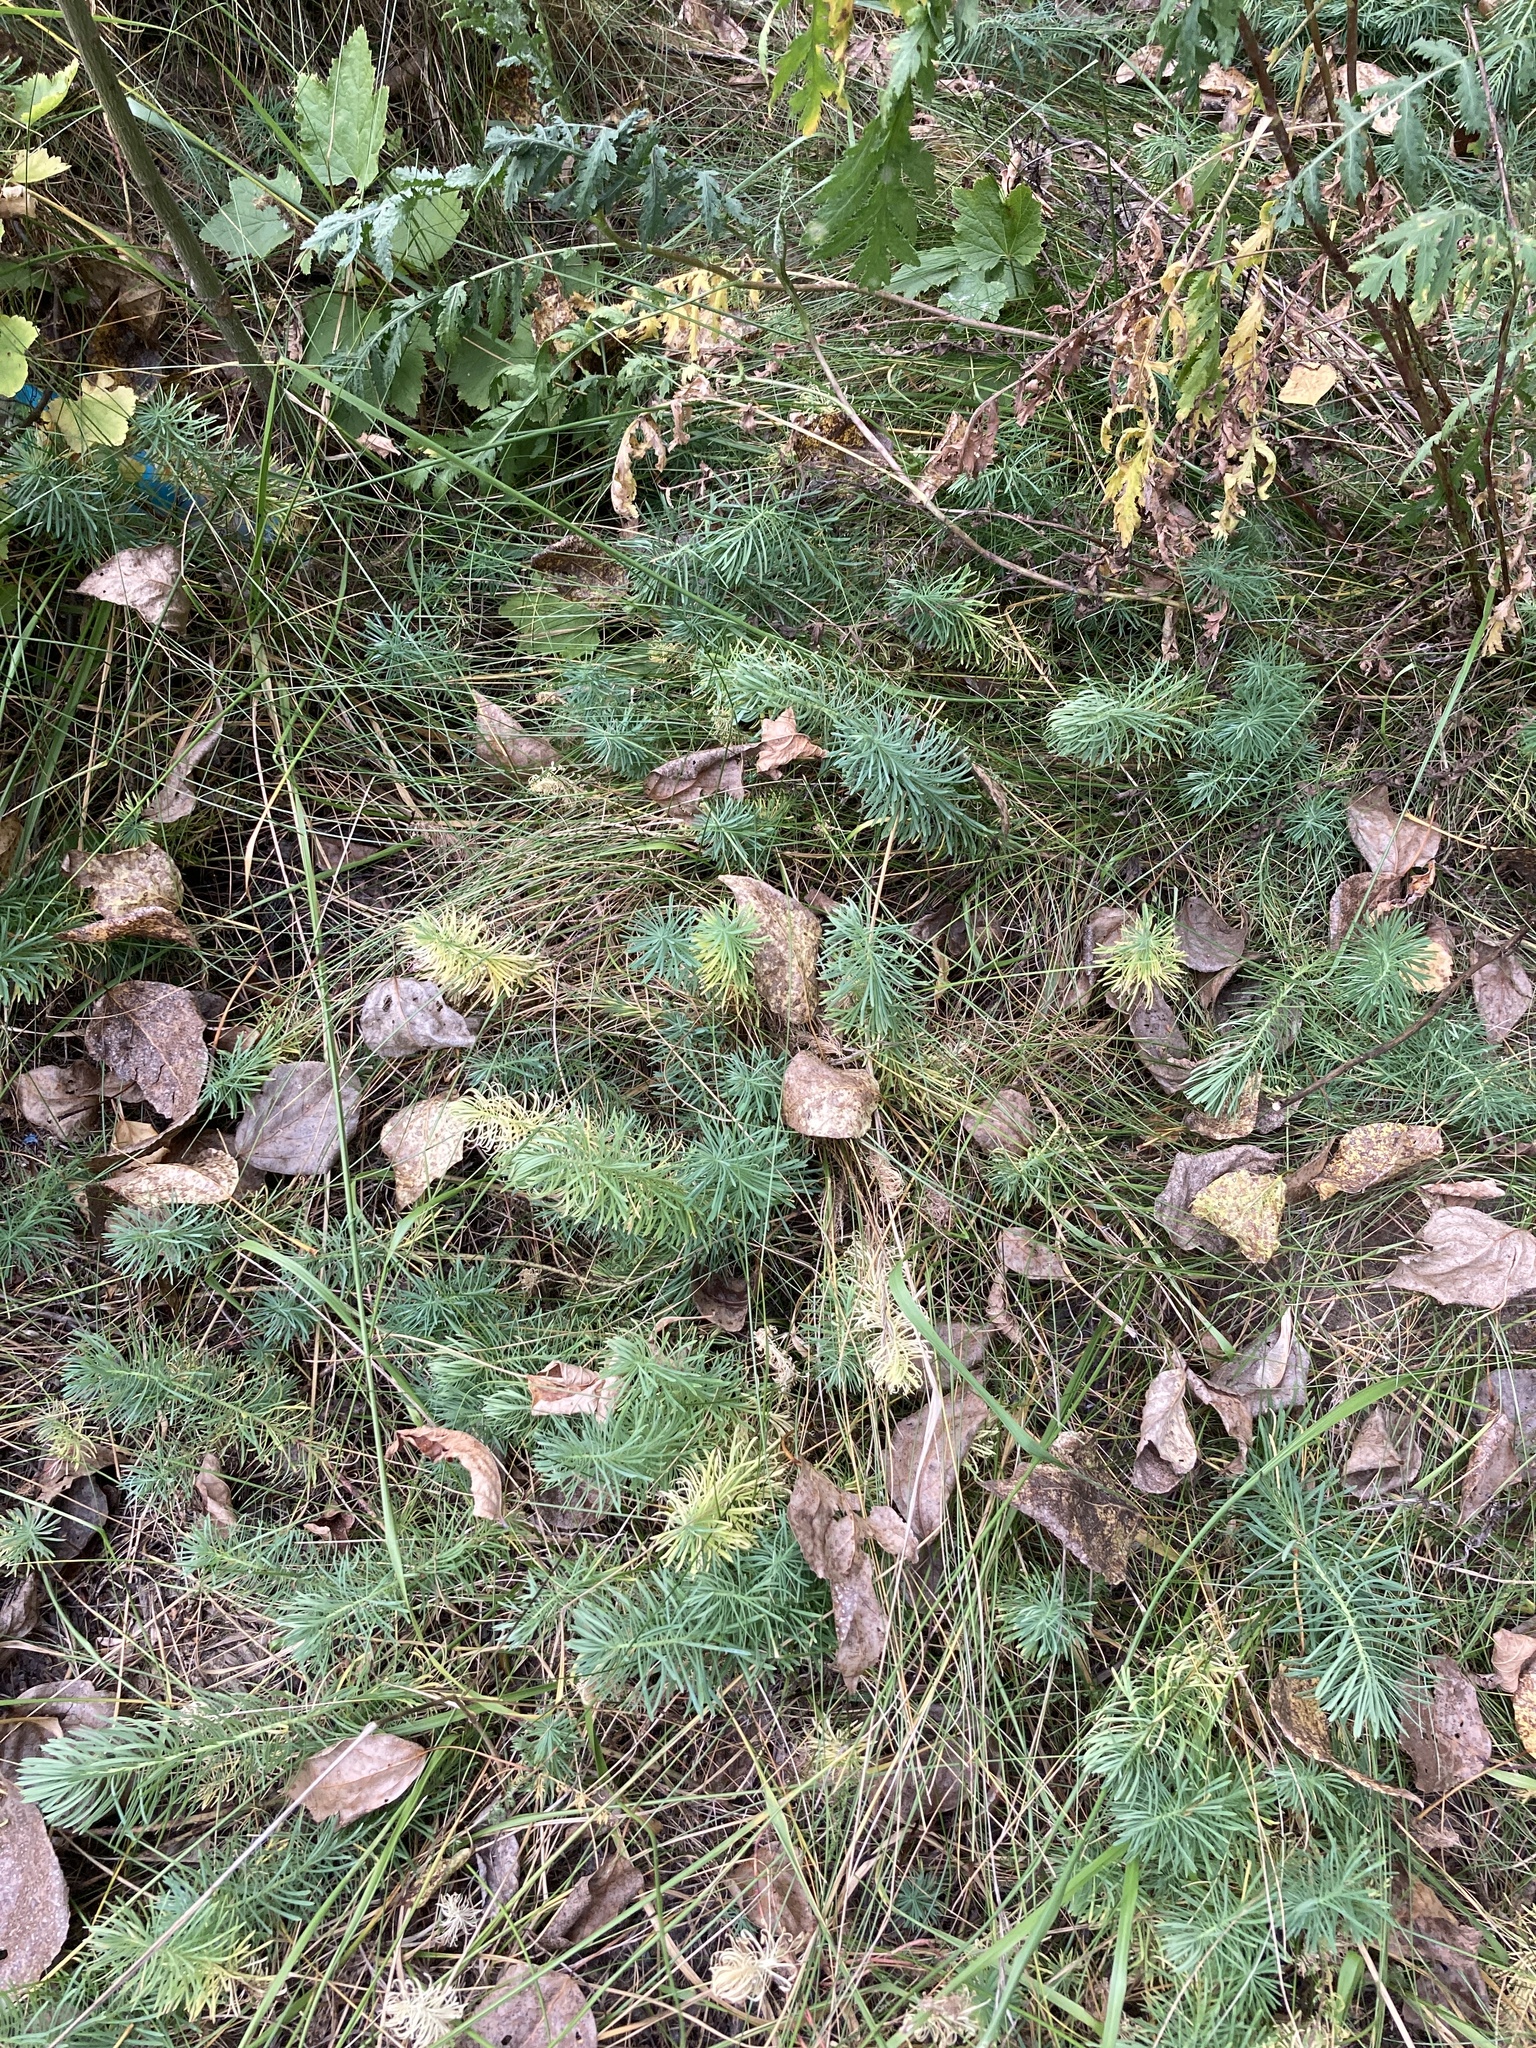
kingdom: Plantae
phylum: Tracheophyta
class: Magnoliopsida
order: Malpighiales
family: Euphorbiaceae
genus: Euphorbia
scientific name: Euphorbia cyparissias
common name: Cypress spurge
